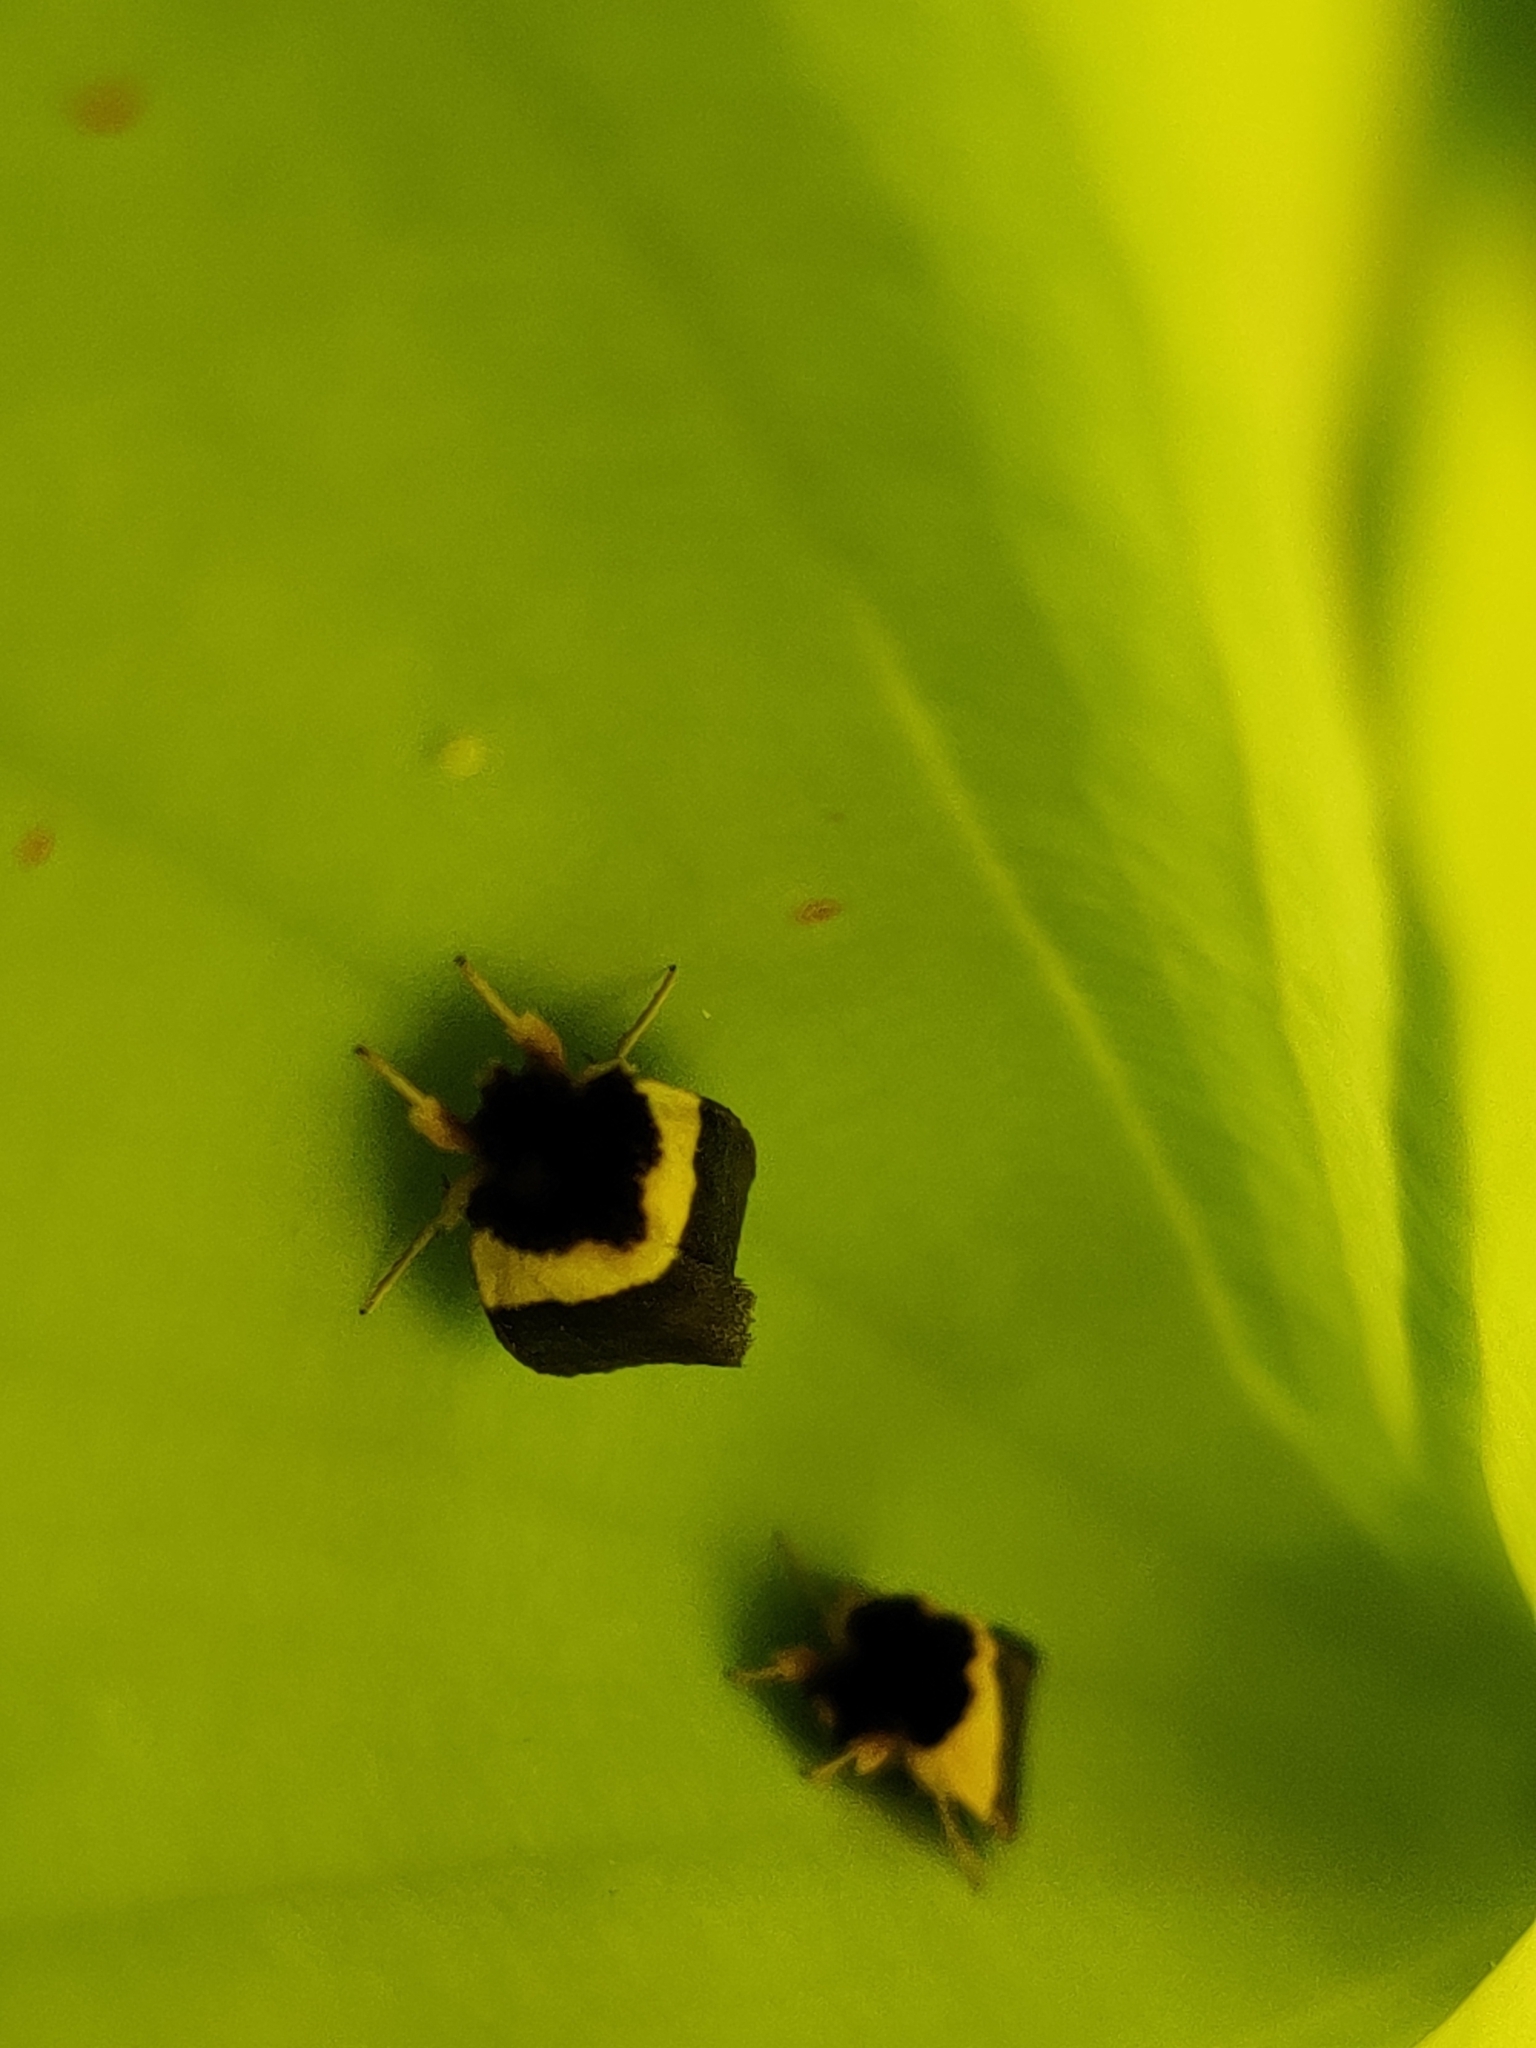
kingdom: Animalia
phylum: Arthropoda
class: Insecta
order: Lepidoptera
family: Noctuidae
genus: Exyra
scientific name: Exyra semicrocea
